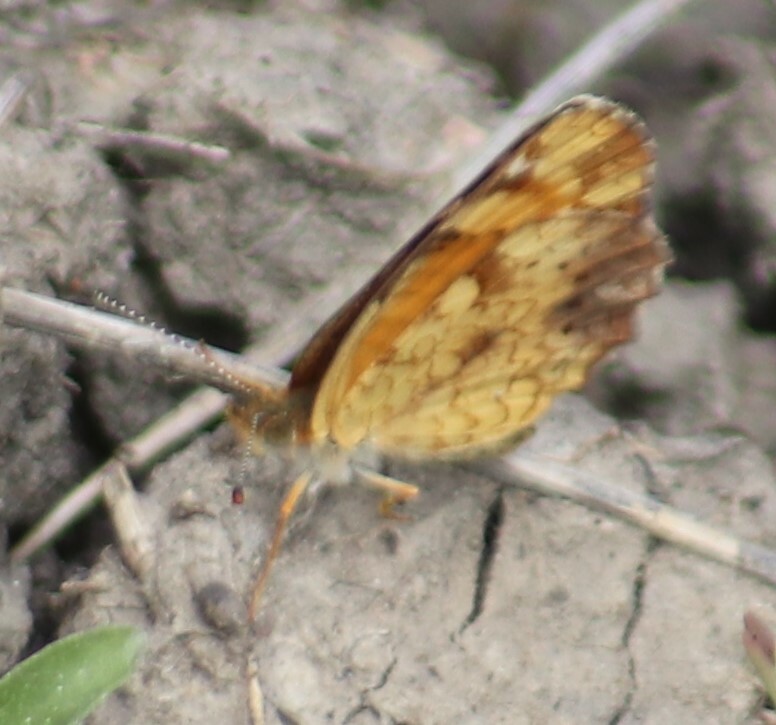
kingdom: Animalia
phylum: Arthropoda
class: Insecta
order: Lepidoptera
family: Nymphalidae
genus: Phyciodes
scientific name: Phyciodes tharos
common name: Pearl crescent
